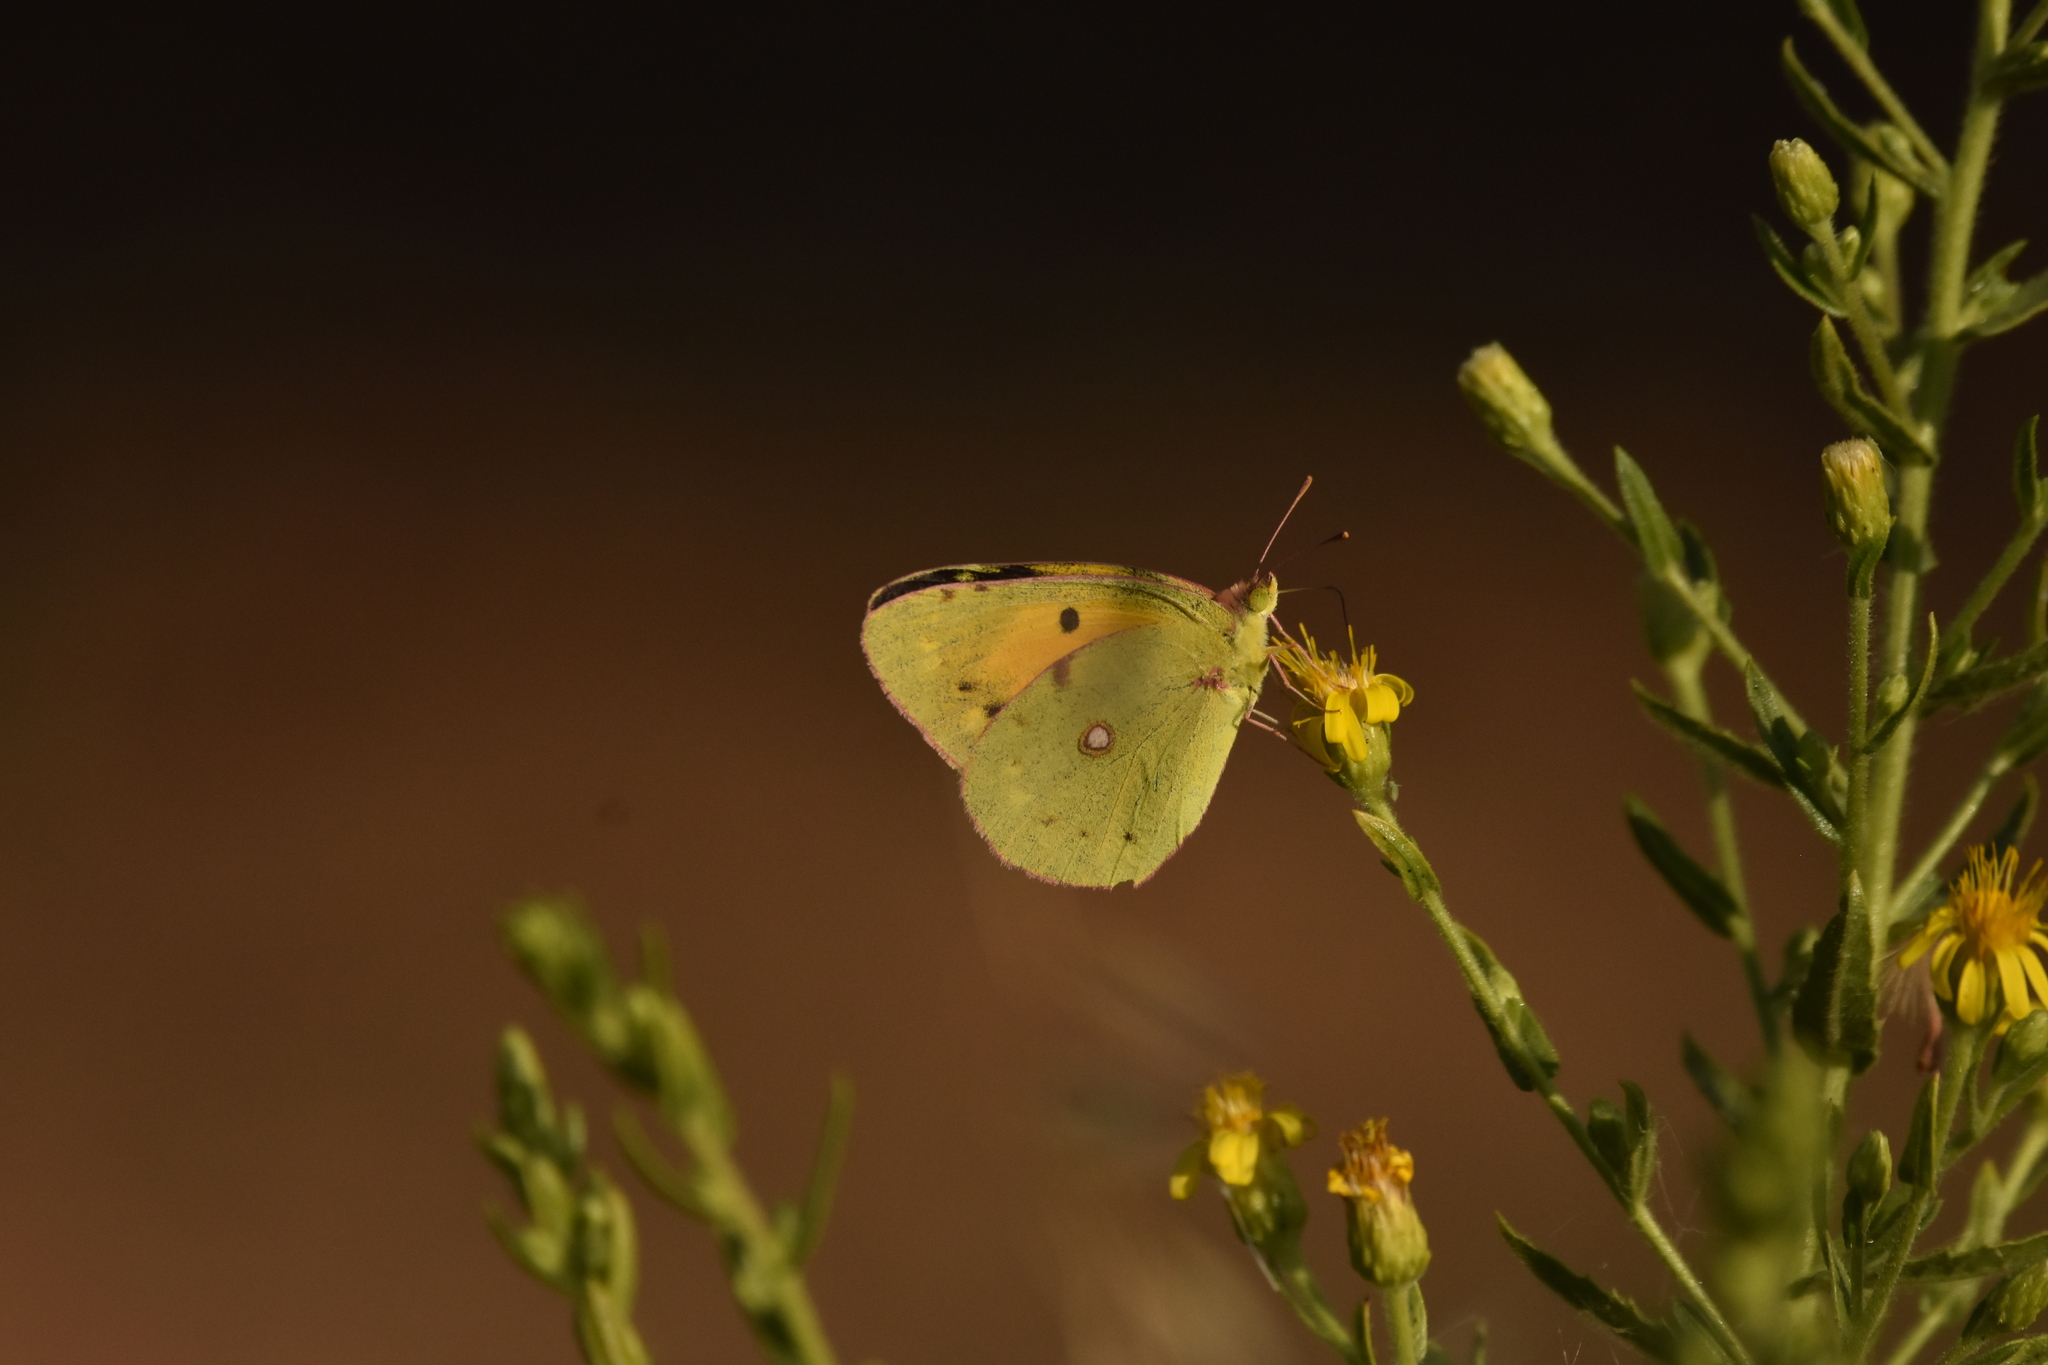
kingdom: Animalia
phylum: Arthropoda
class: Insecta
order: Lepidoptera
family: Pieridae
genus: Colias
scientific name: Colias croceus
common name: Clouded yellow
